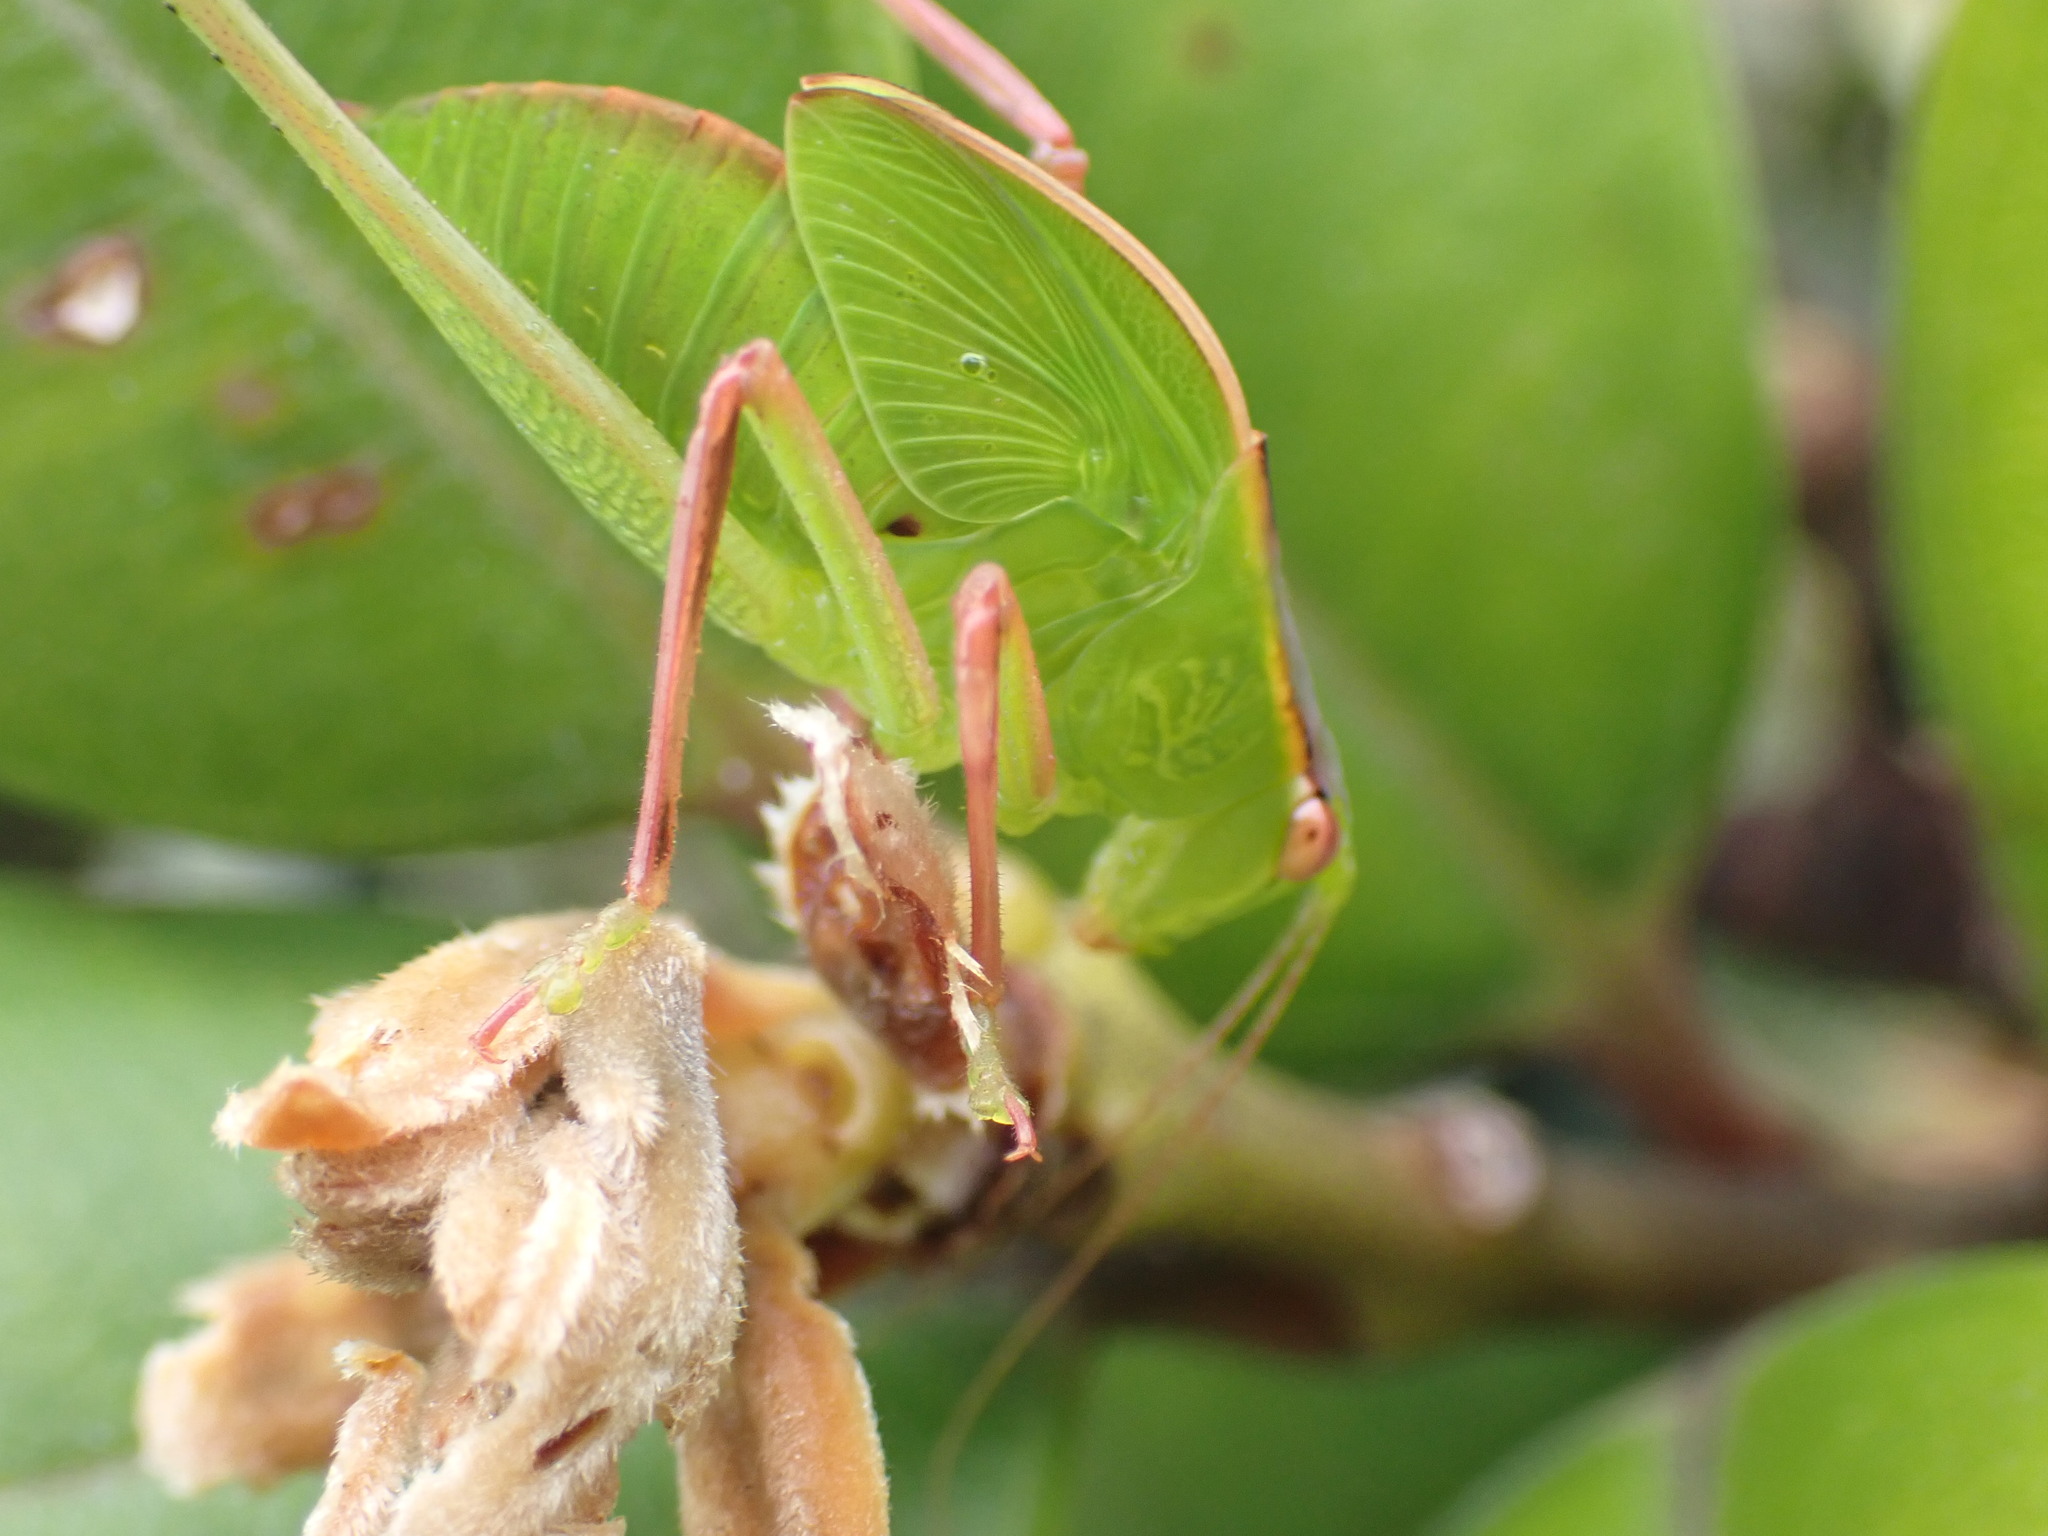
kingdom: Animalia
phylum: Arthropoda
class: Insecta
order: Orthoptera
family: Tettigoniidae
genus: Caedicia
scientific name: Caedicia simplex
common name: Common garden katydid
